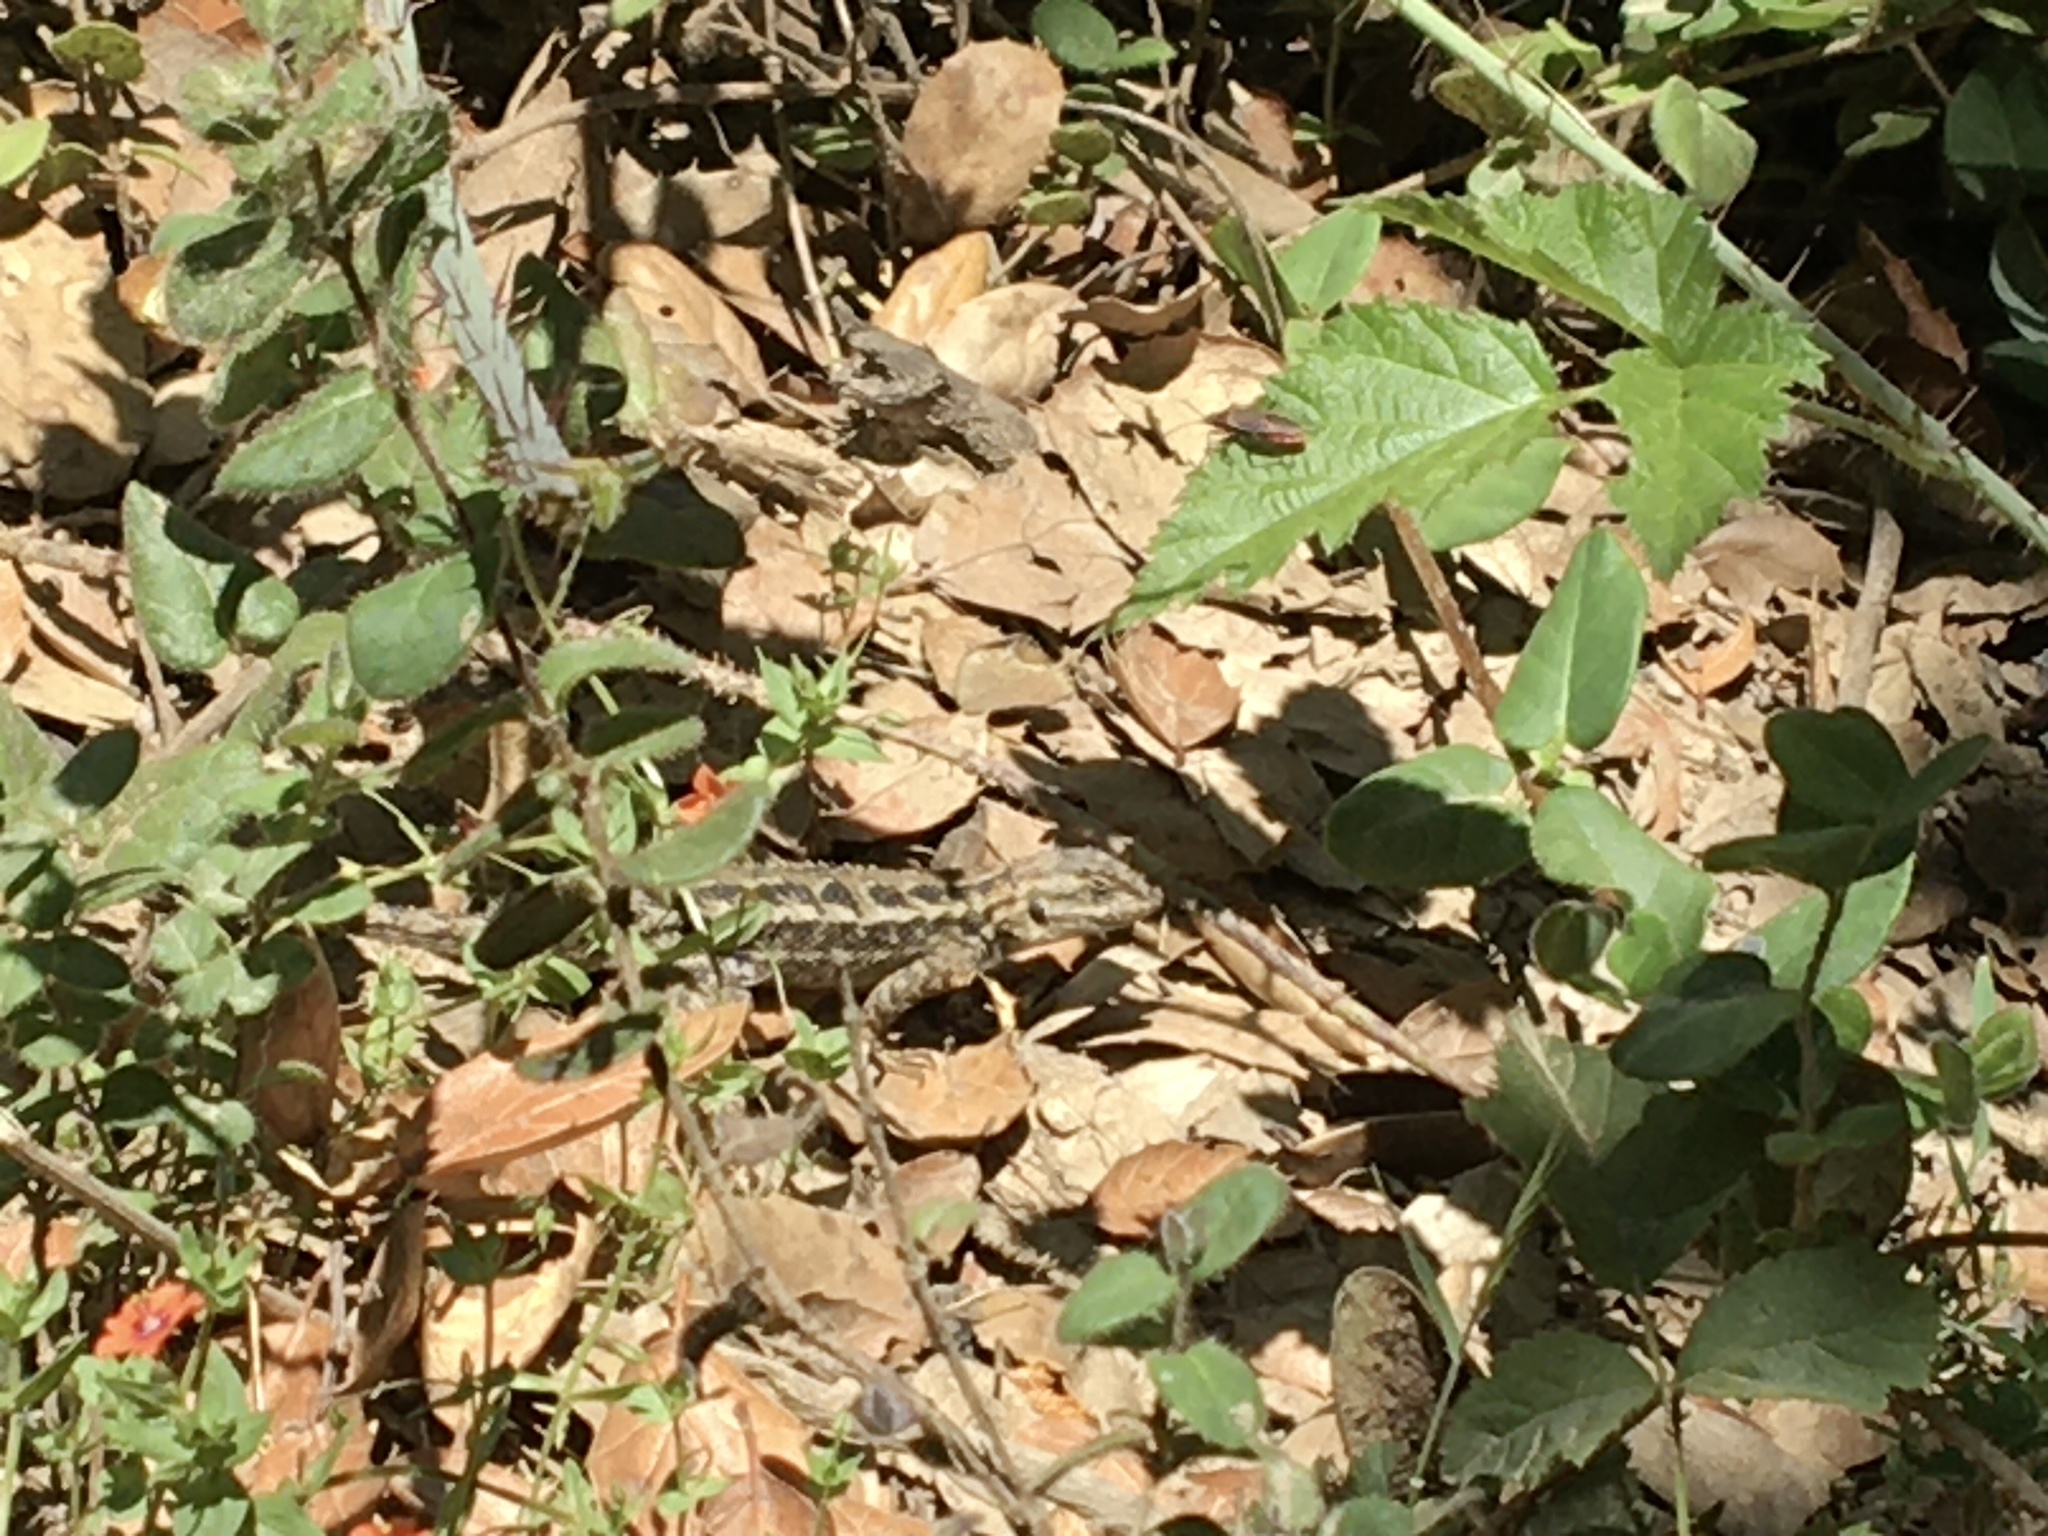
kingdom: Animalia
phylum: Chordata
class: Squamata
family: Phrynosomatidae
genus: Sceloporus
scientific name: Sceloporus occidentalis
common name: Western fence lizard
